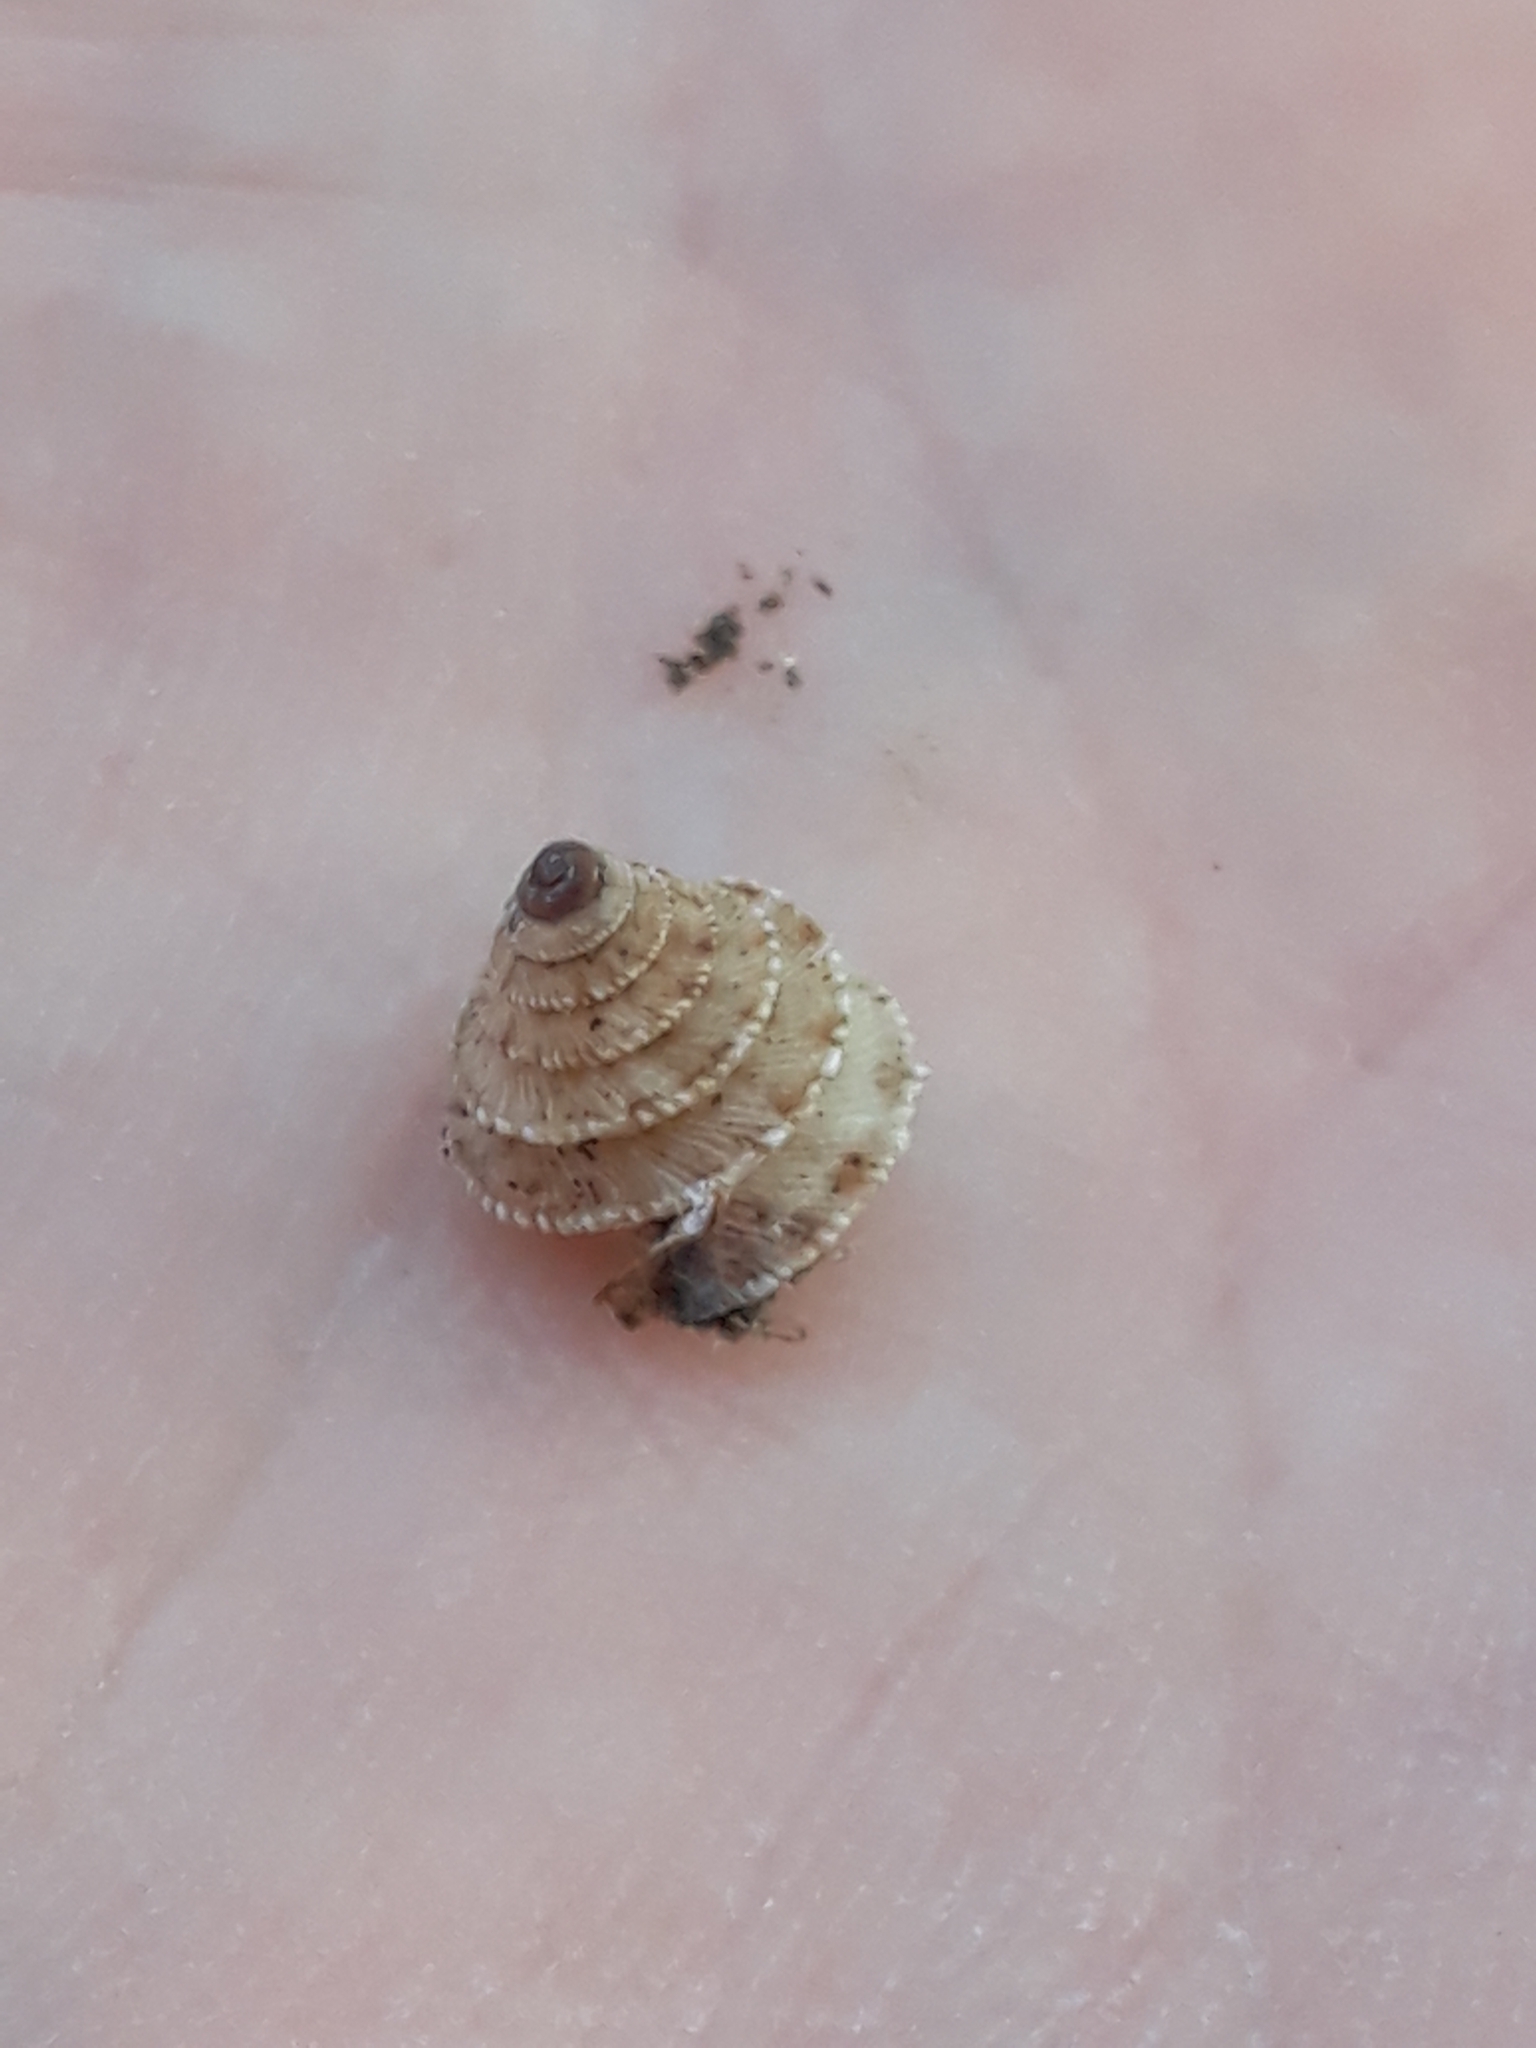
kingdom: Animalia
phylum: Mollusca
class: Gastropoda
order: Stylommatophora
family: Geomitridae
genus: Trochoidea
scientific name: Trochoidea caroni
